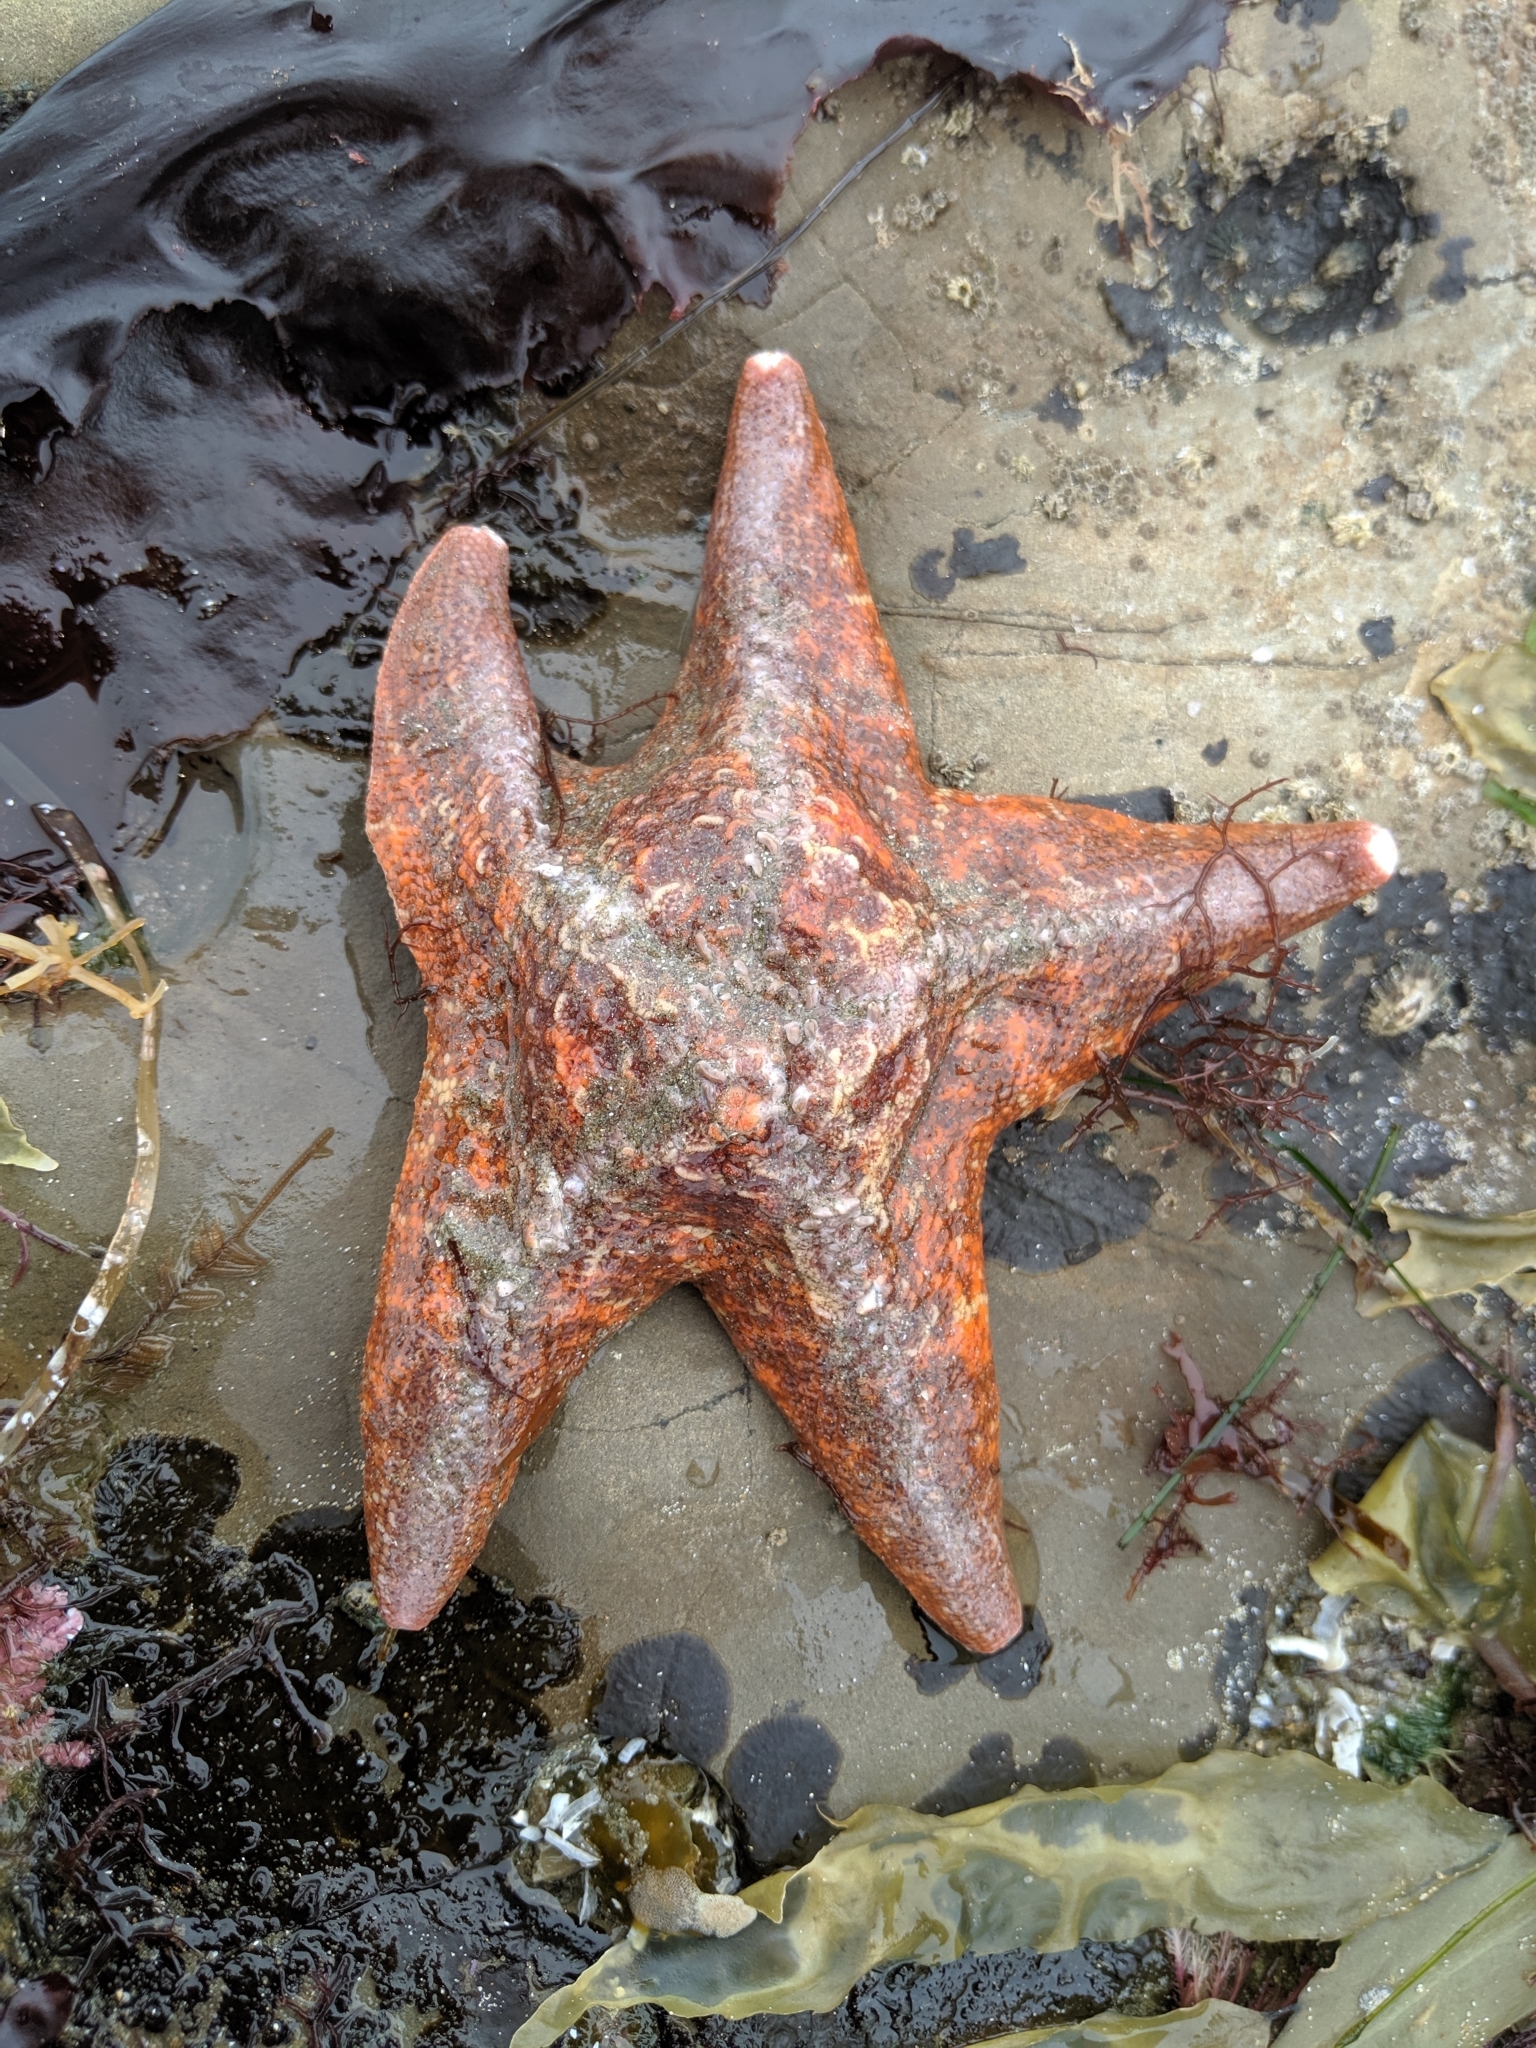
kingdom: Animalia
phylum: Echinodermata
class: Asteroidea
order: Valvatida
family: Asterinidae
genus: Patiria
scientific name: Patiria miniata
